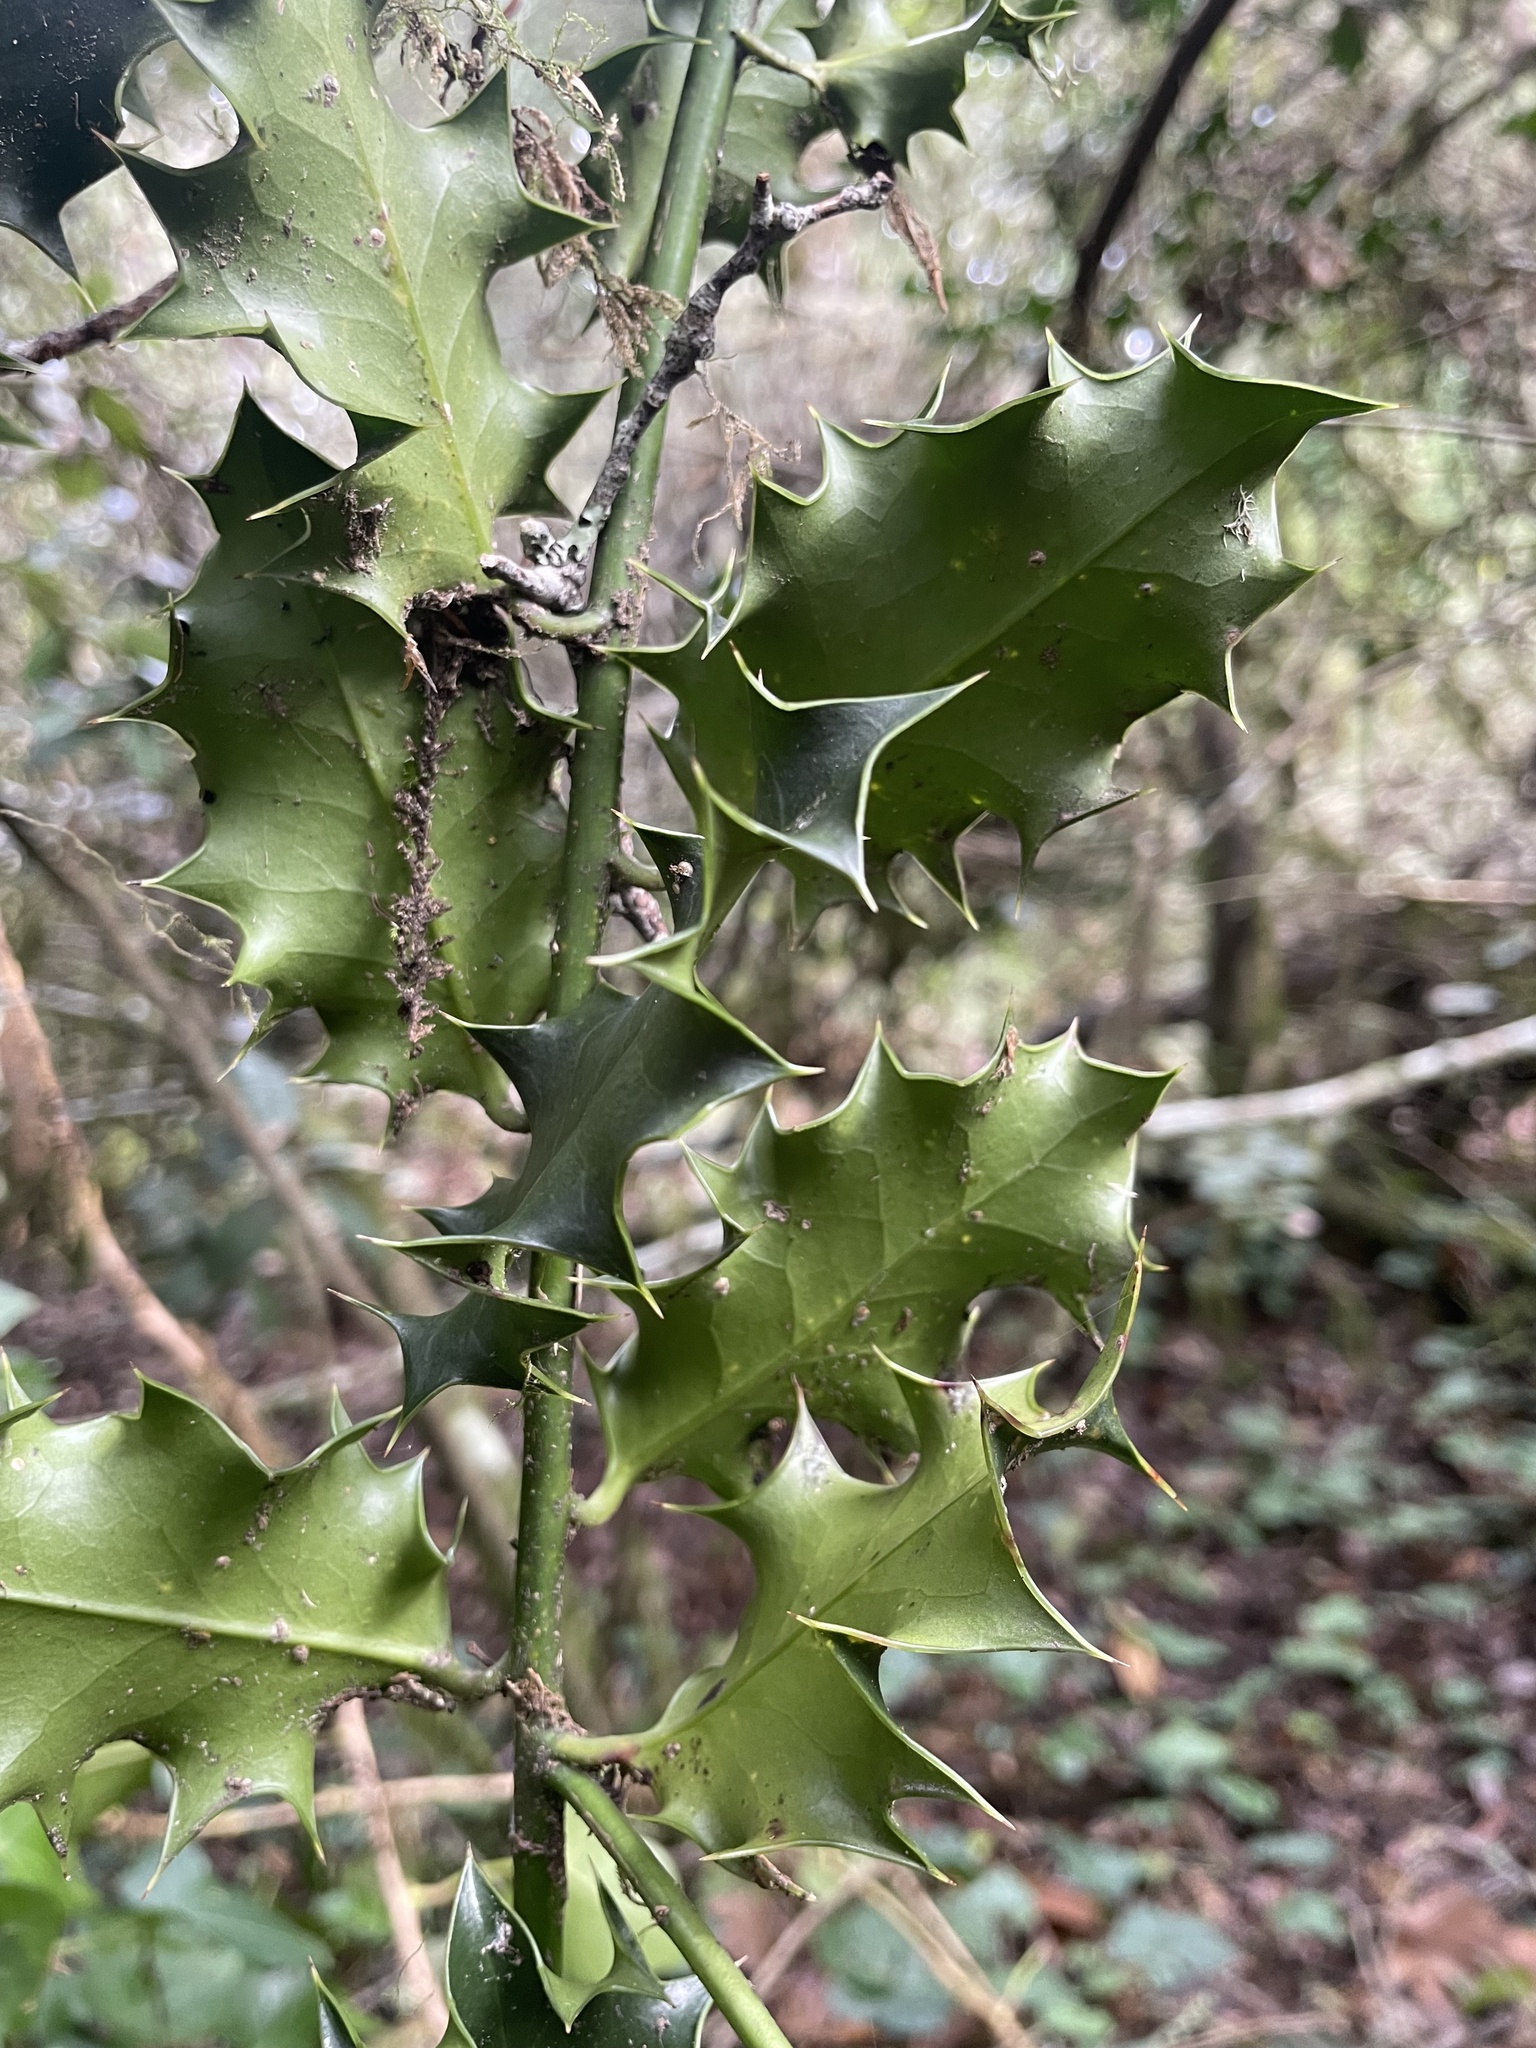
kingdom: Plantae
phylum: Tracheophyta
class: Magnoliopsida
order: Aquifoliales
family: Aquifoliaceae
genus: Ilex
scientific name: Ilex aquifolium
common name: English holly
